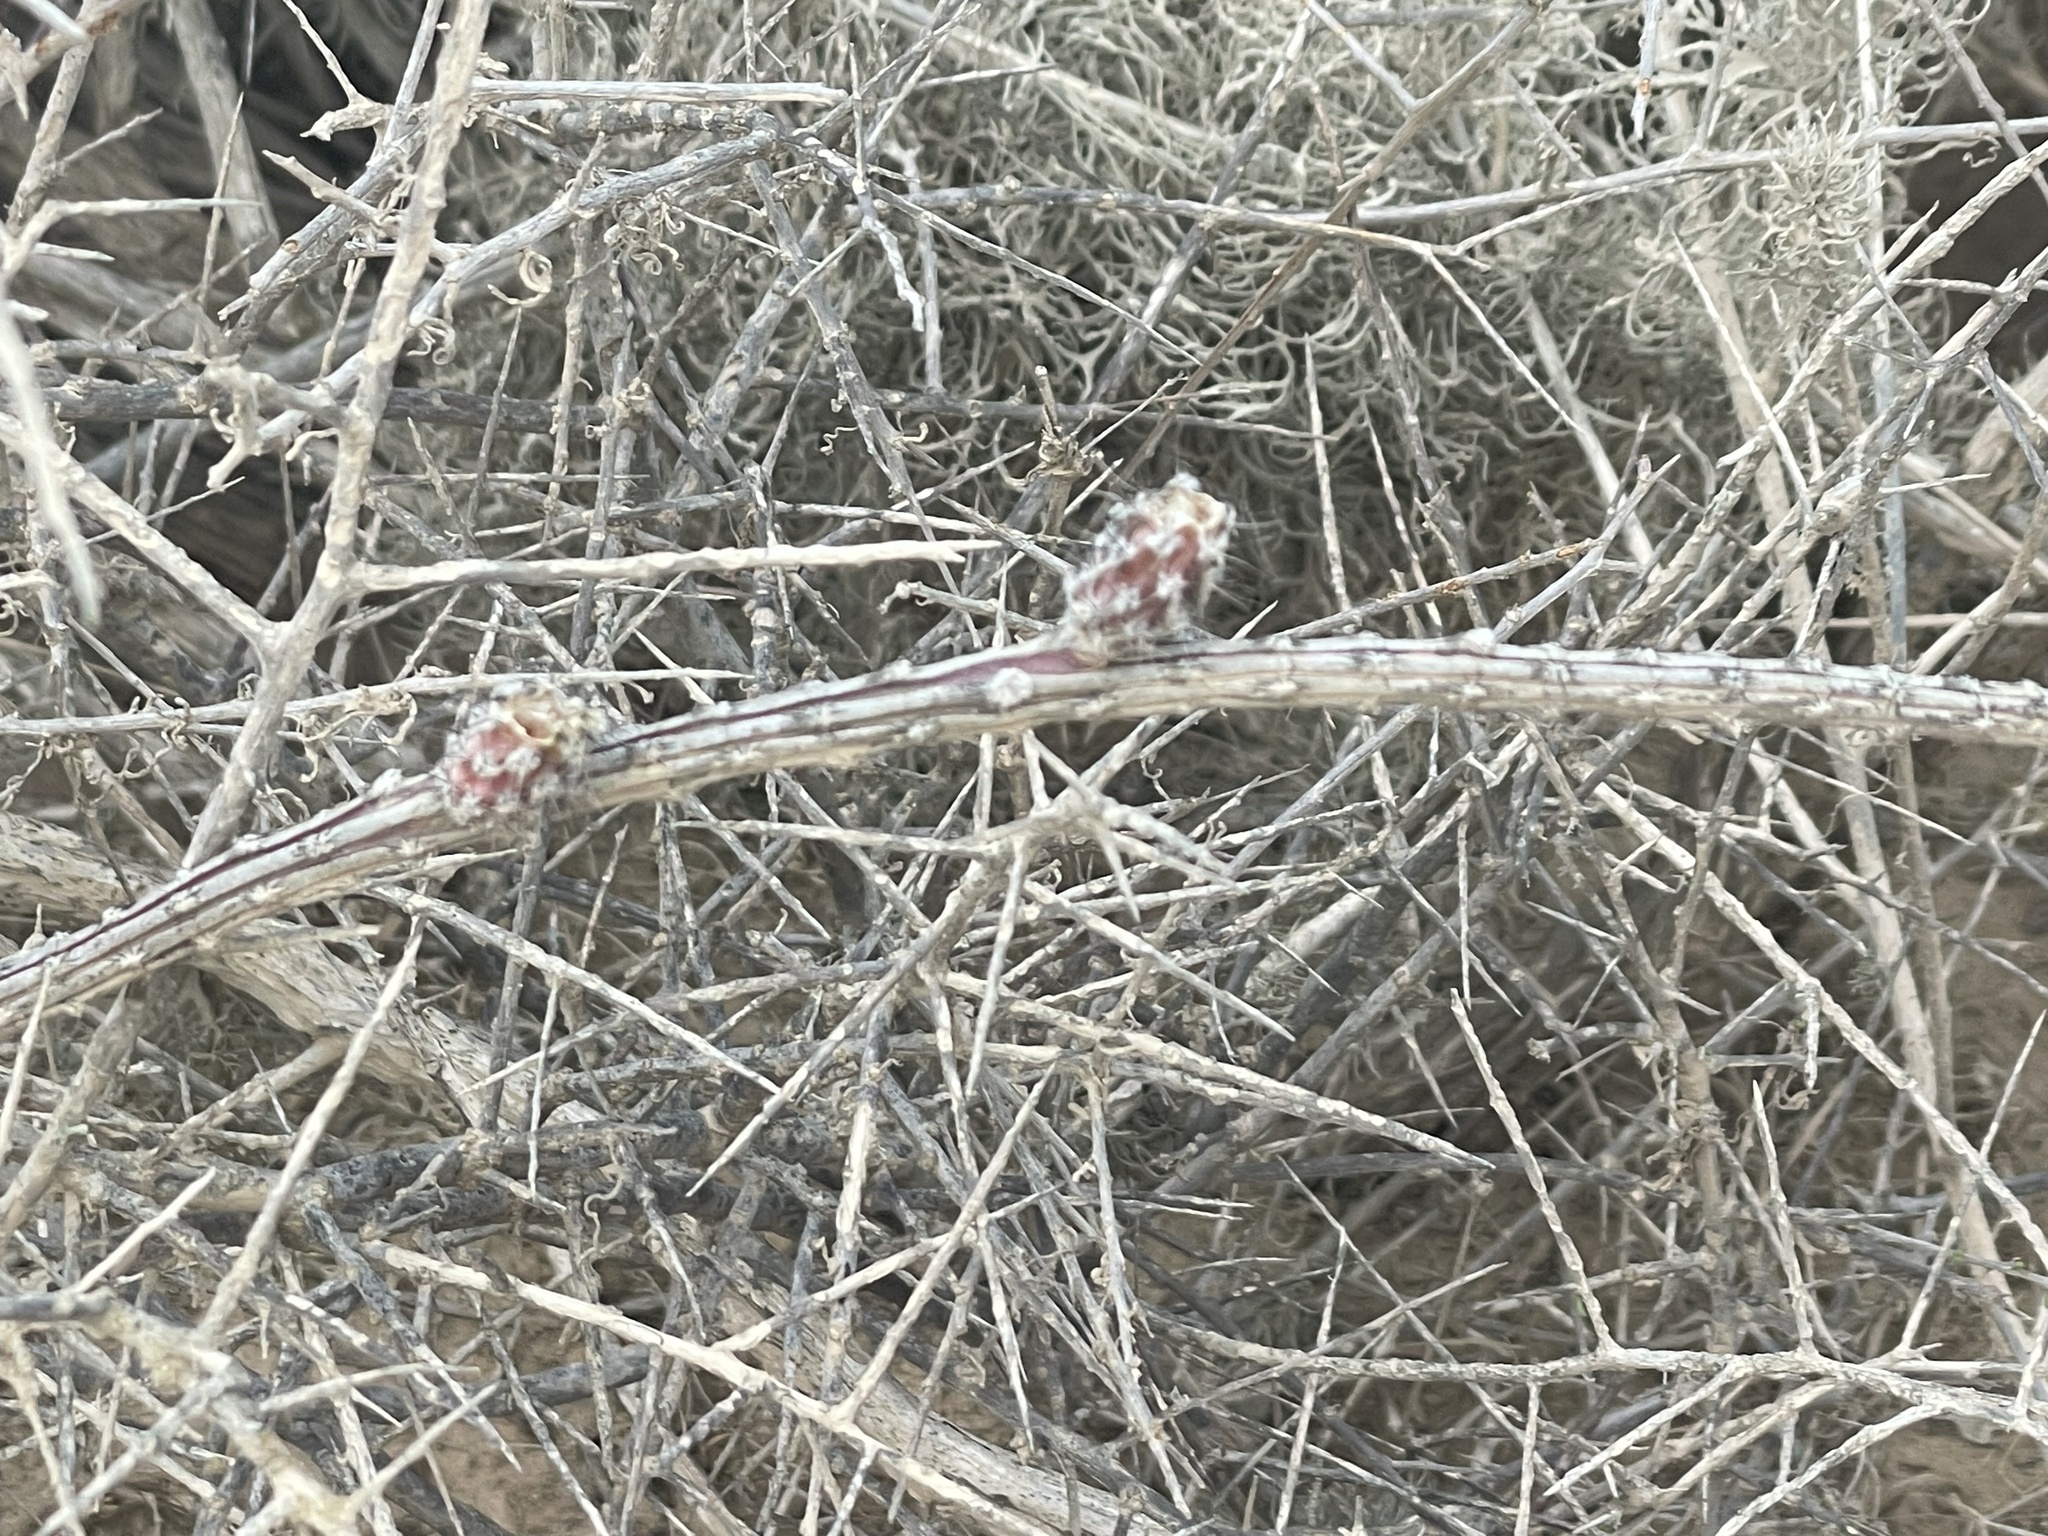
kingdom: Plantae
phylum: Tracheophyta
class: Magnoliopsida
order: Caryophyllales
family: Cactaceae
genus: Peniocereus
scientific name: Peniocereus striatus
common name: Gearstem cactus
